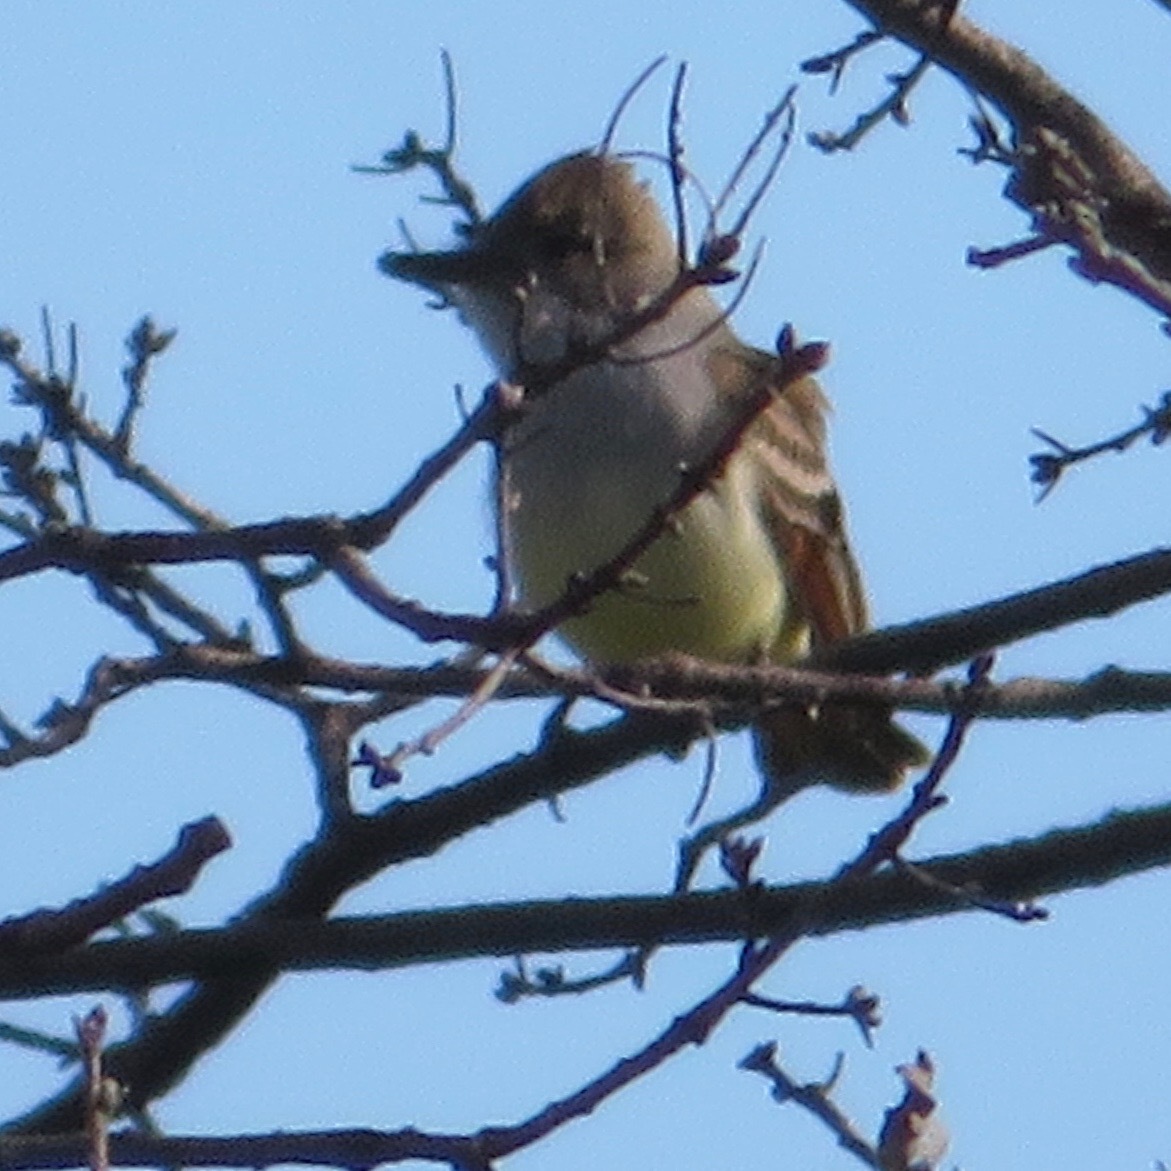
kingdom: Animalia
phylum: Chordata
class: Aves
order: Passeriformes
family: Tyrannidae
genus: Myiarchus
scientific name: Myiarchus cinerascens
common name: Ash-throated flycatcher
